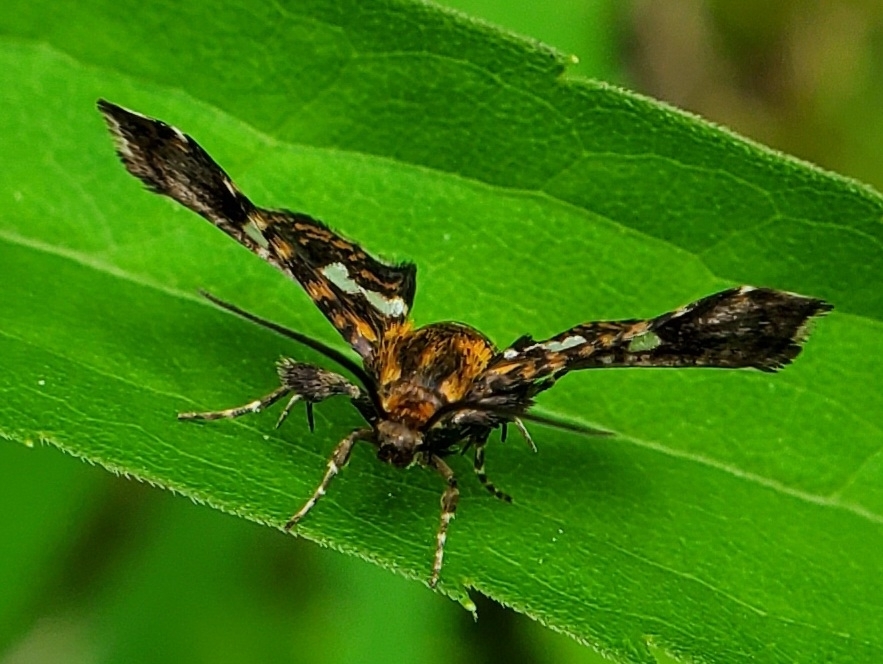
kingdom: Animalia
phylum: Arthropoda
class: Insecta
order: Lepidoptera
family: Thyrididae
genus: Thyris
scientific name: Thyris maculata
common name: Spotted thyris moth
